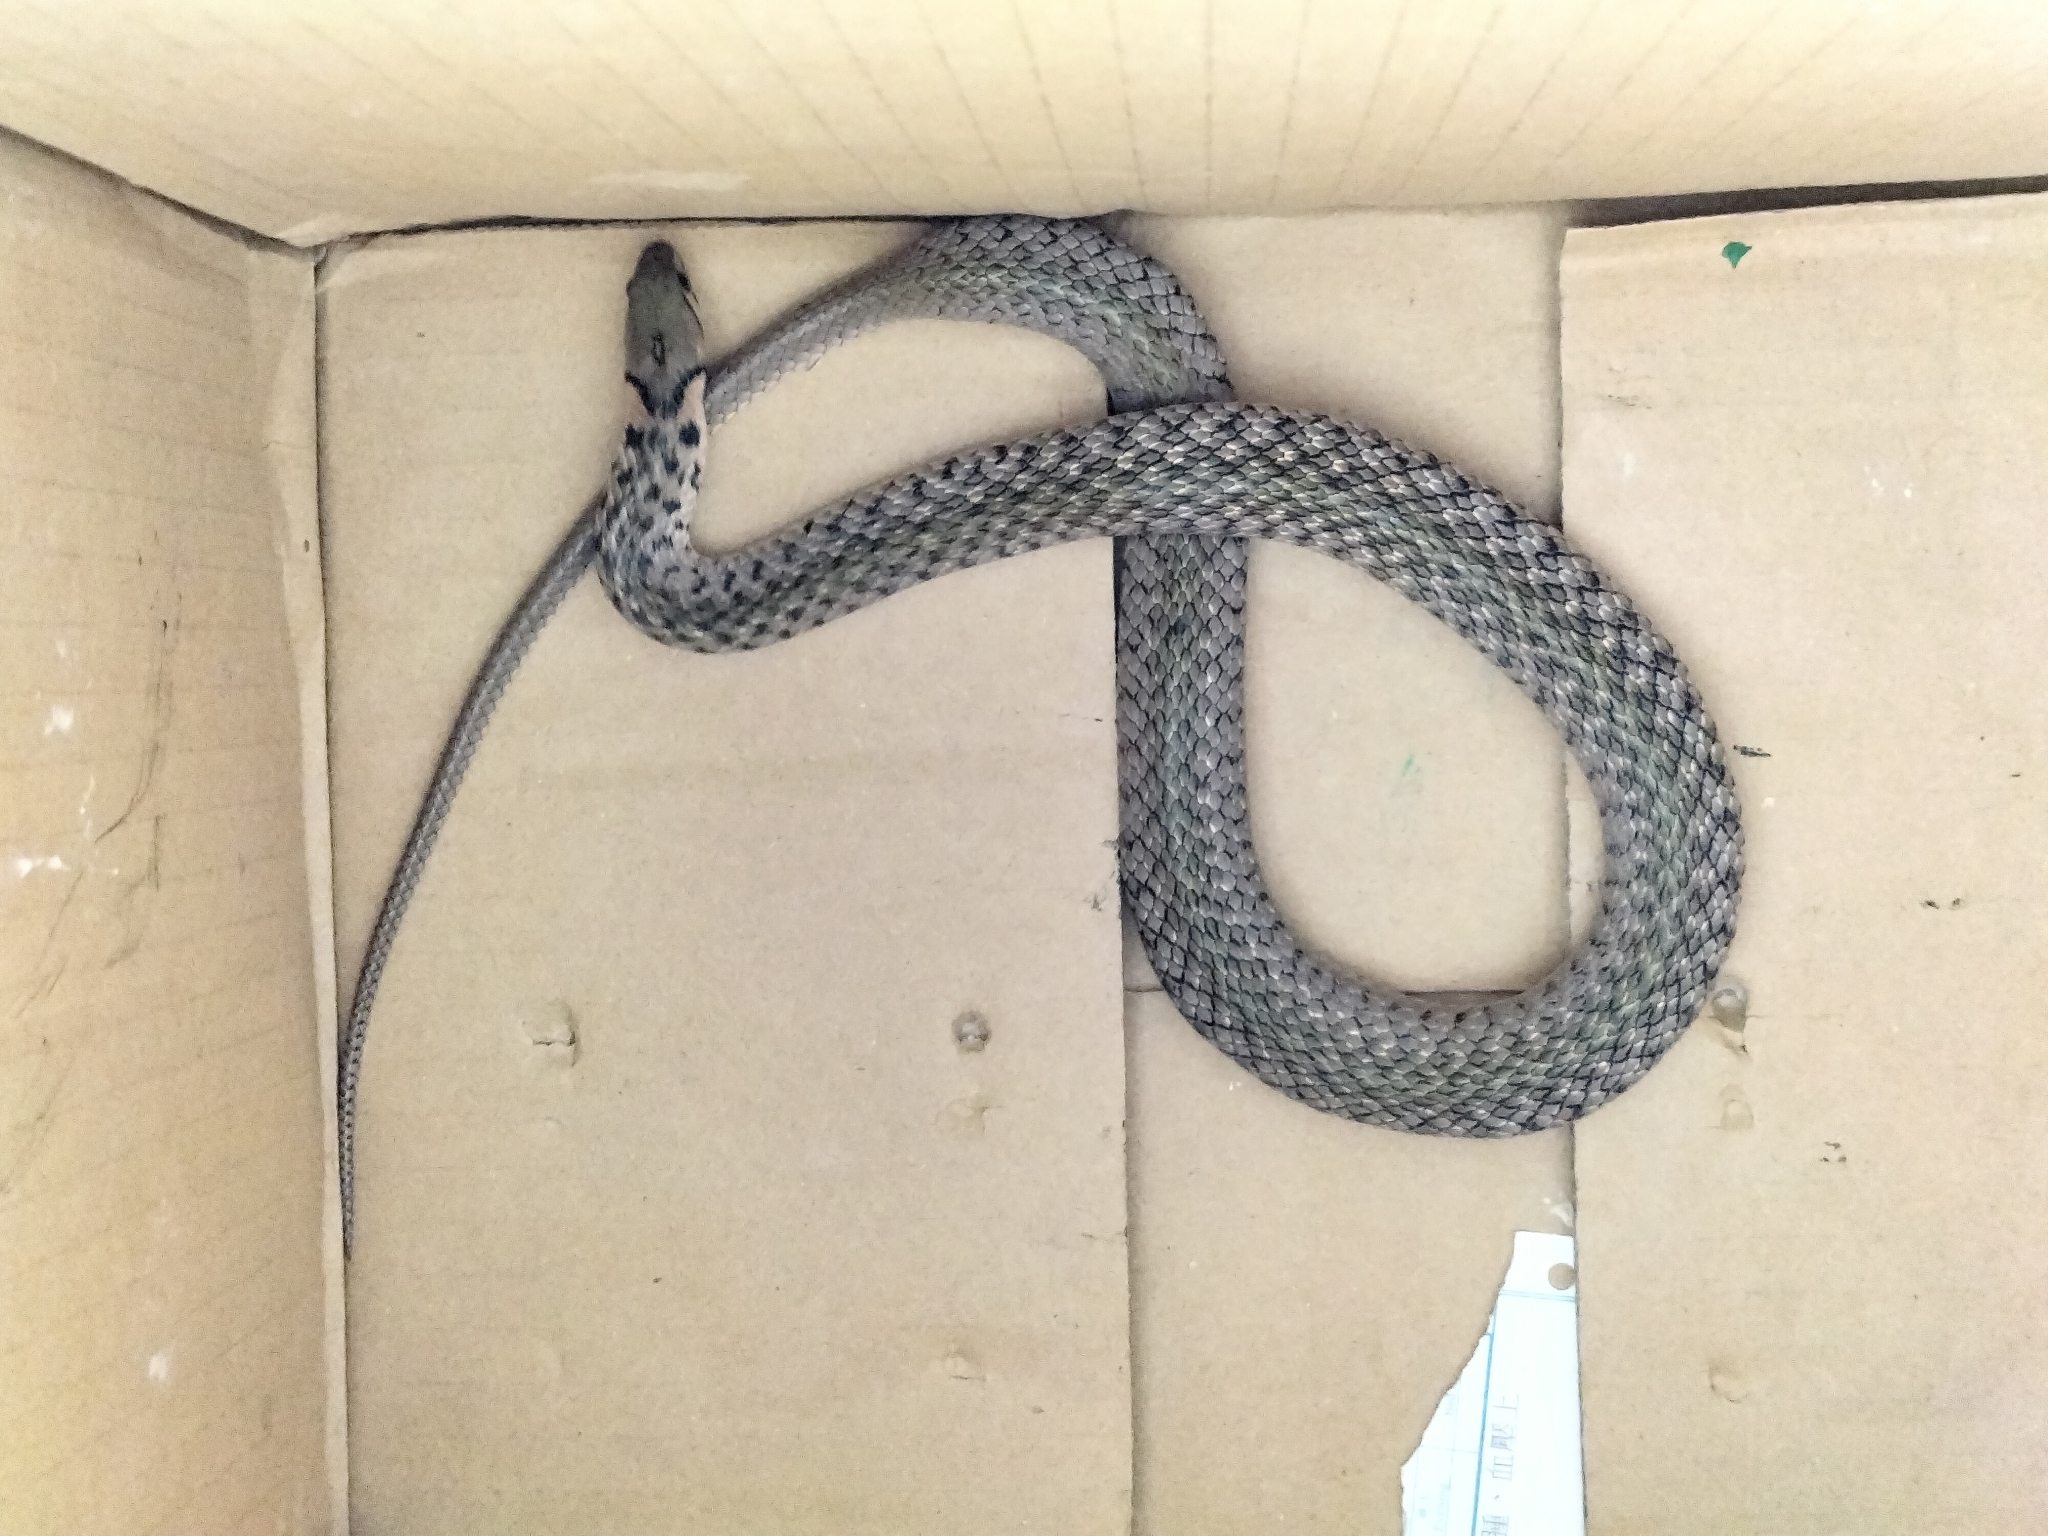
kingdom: Animalia
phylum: Chordata
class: Squamata
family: Colubridae
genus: Fowlea
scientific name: Fowlea flavipunctatus
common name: Yellow-spotted keelback
